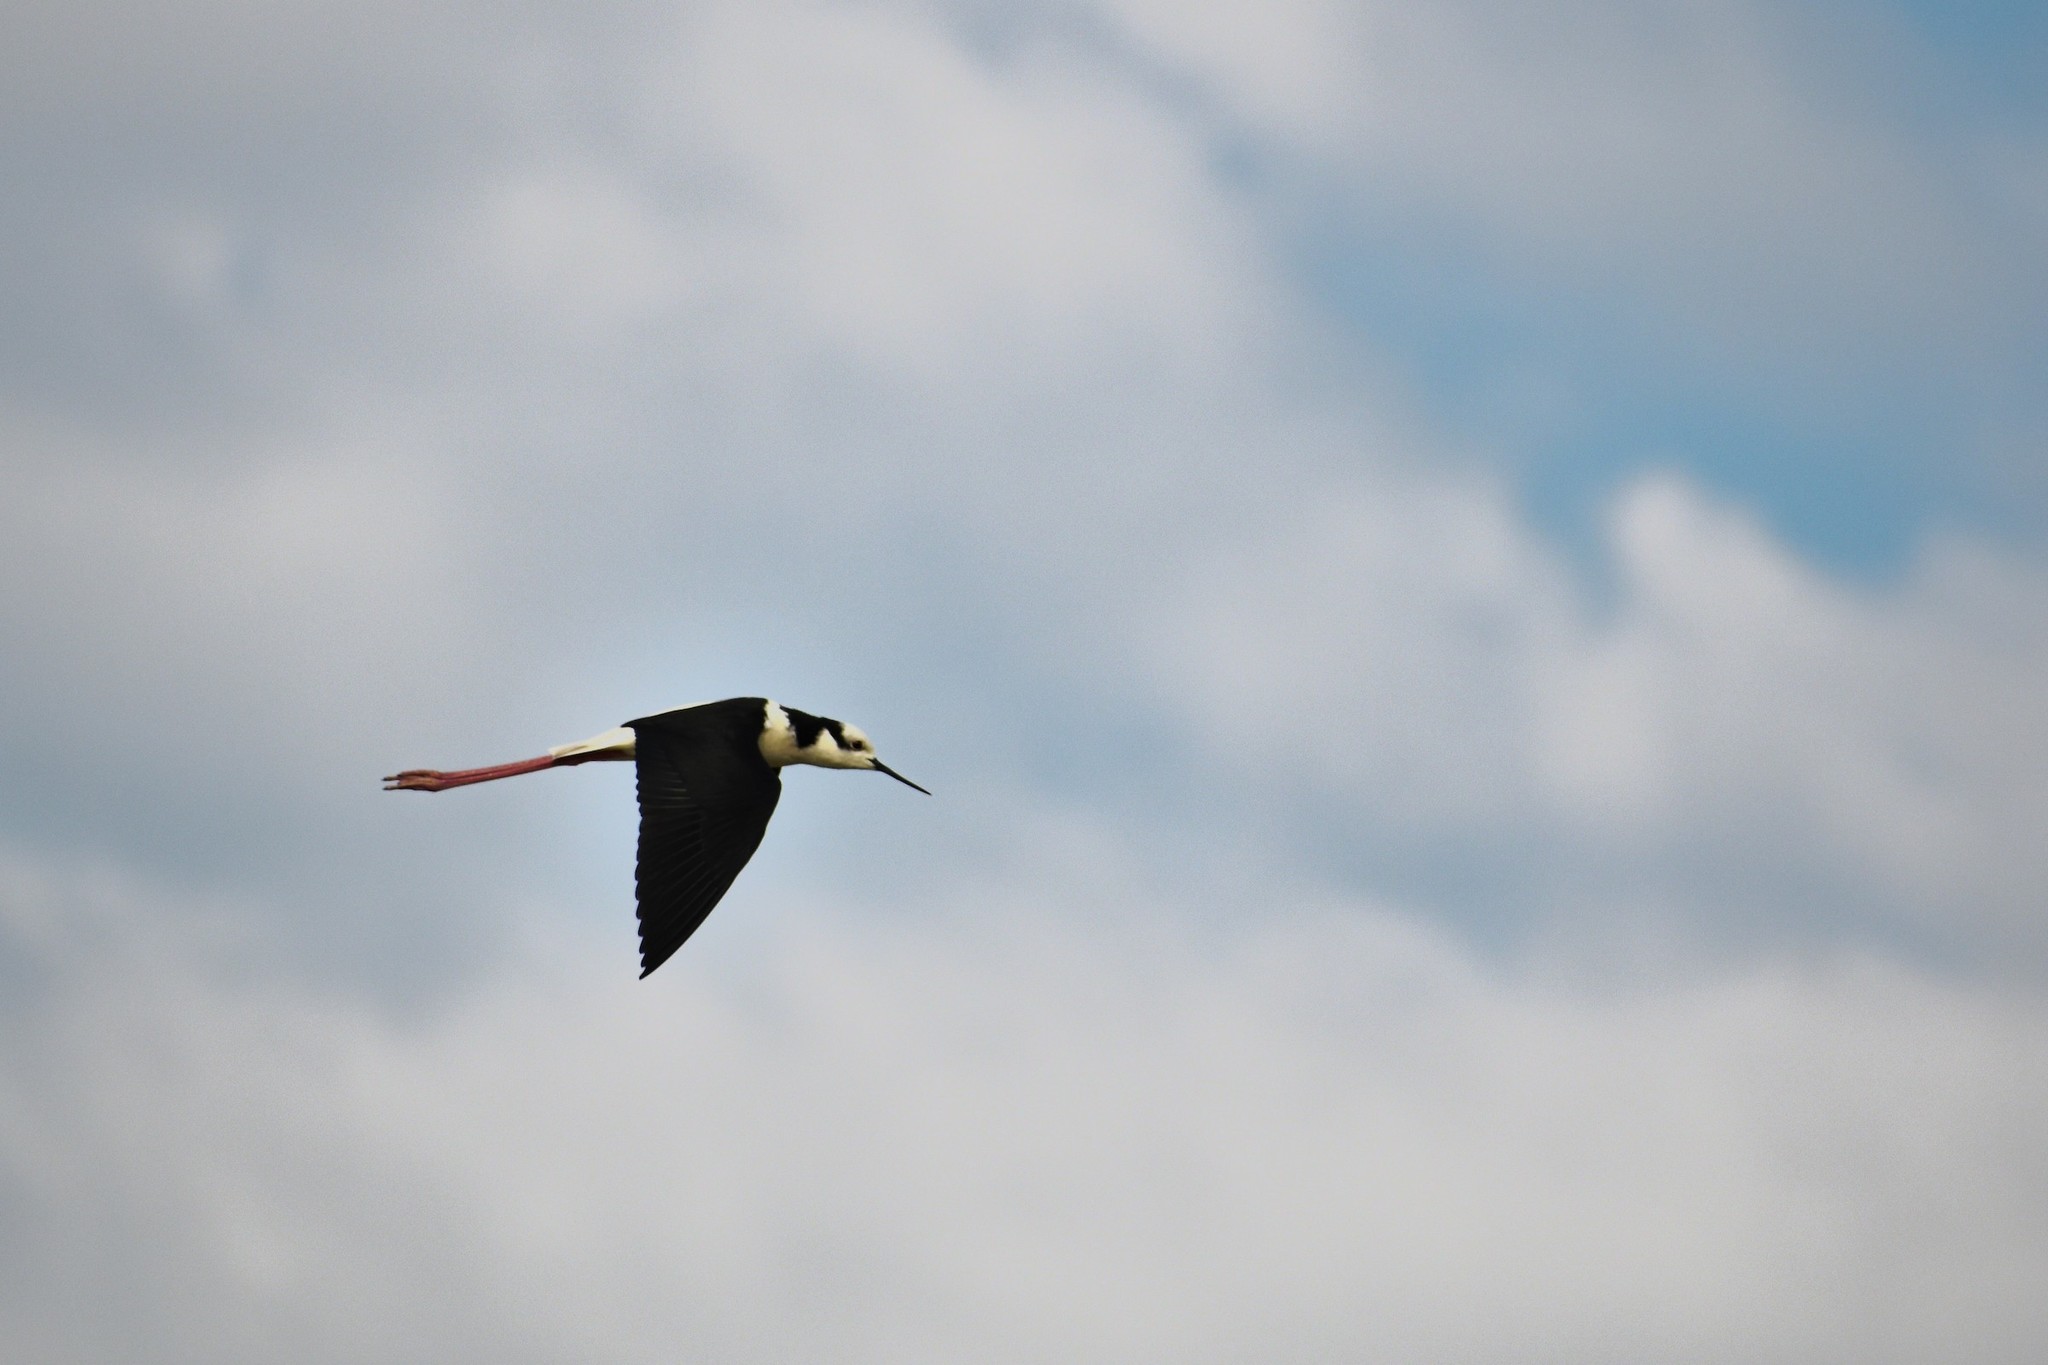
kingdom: Animalia
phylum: Chordata
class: Aves
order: Charadriiformes
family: Recurvirostridae
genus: Himantopus
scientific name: Himantopus mexicanus
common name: Black-necked stilt
